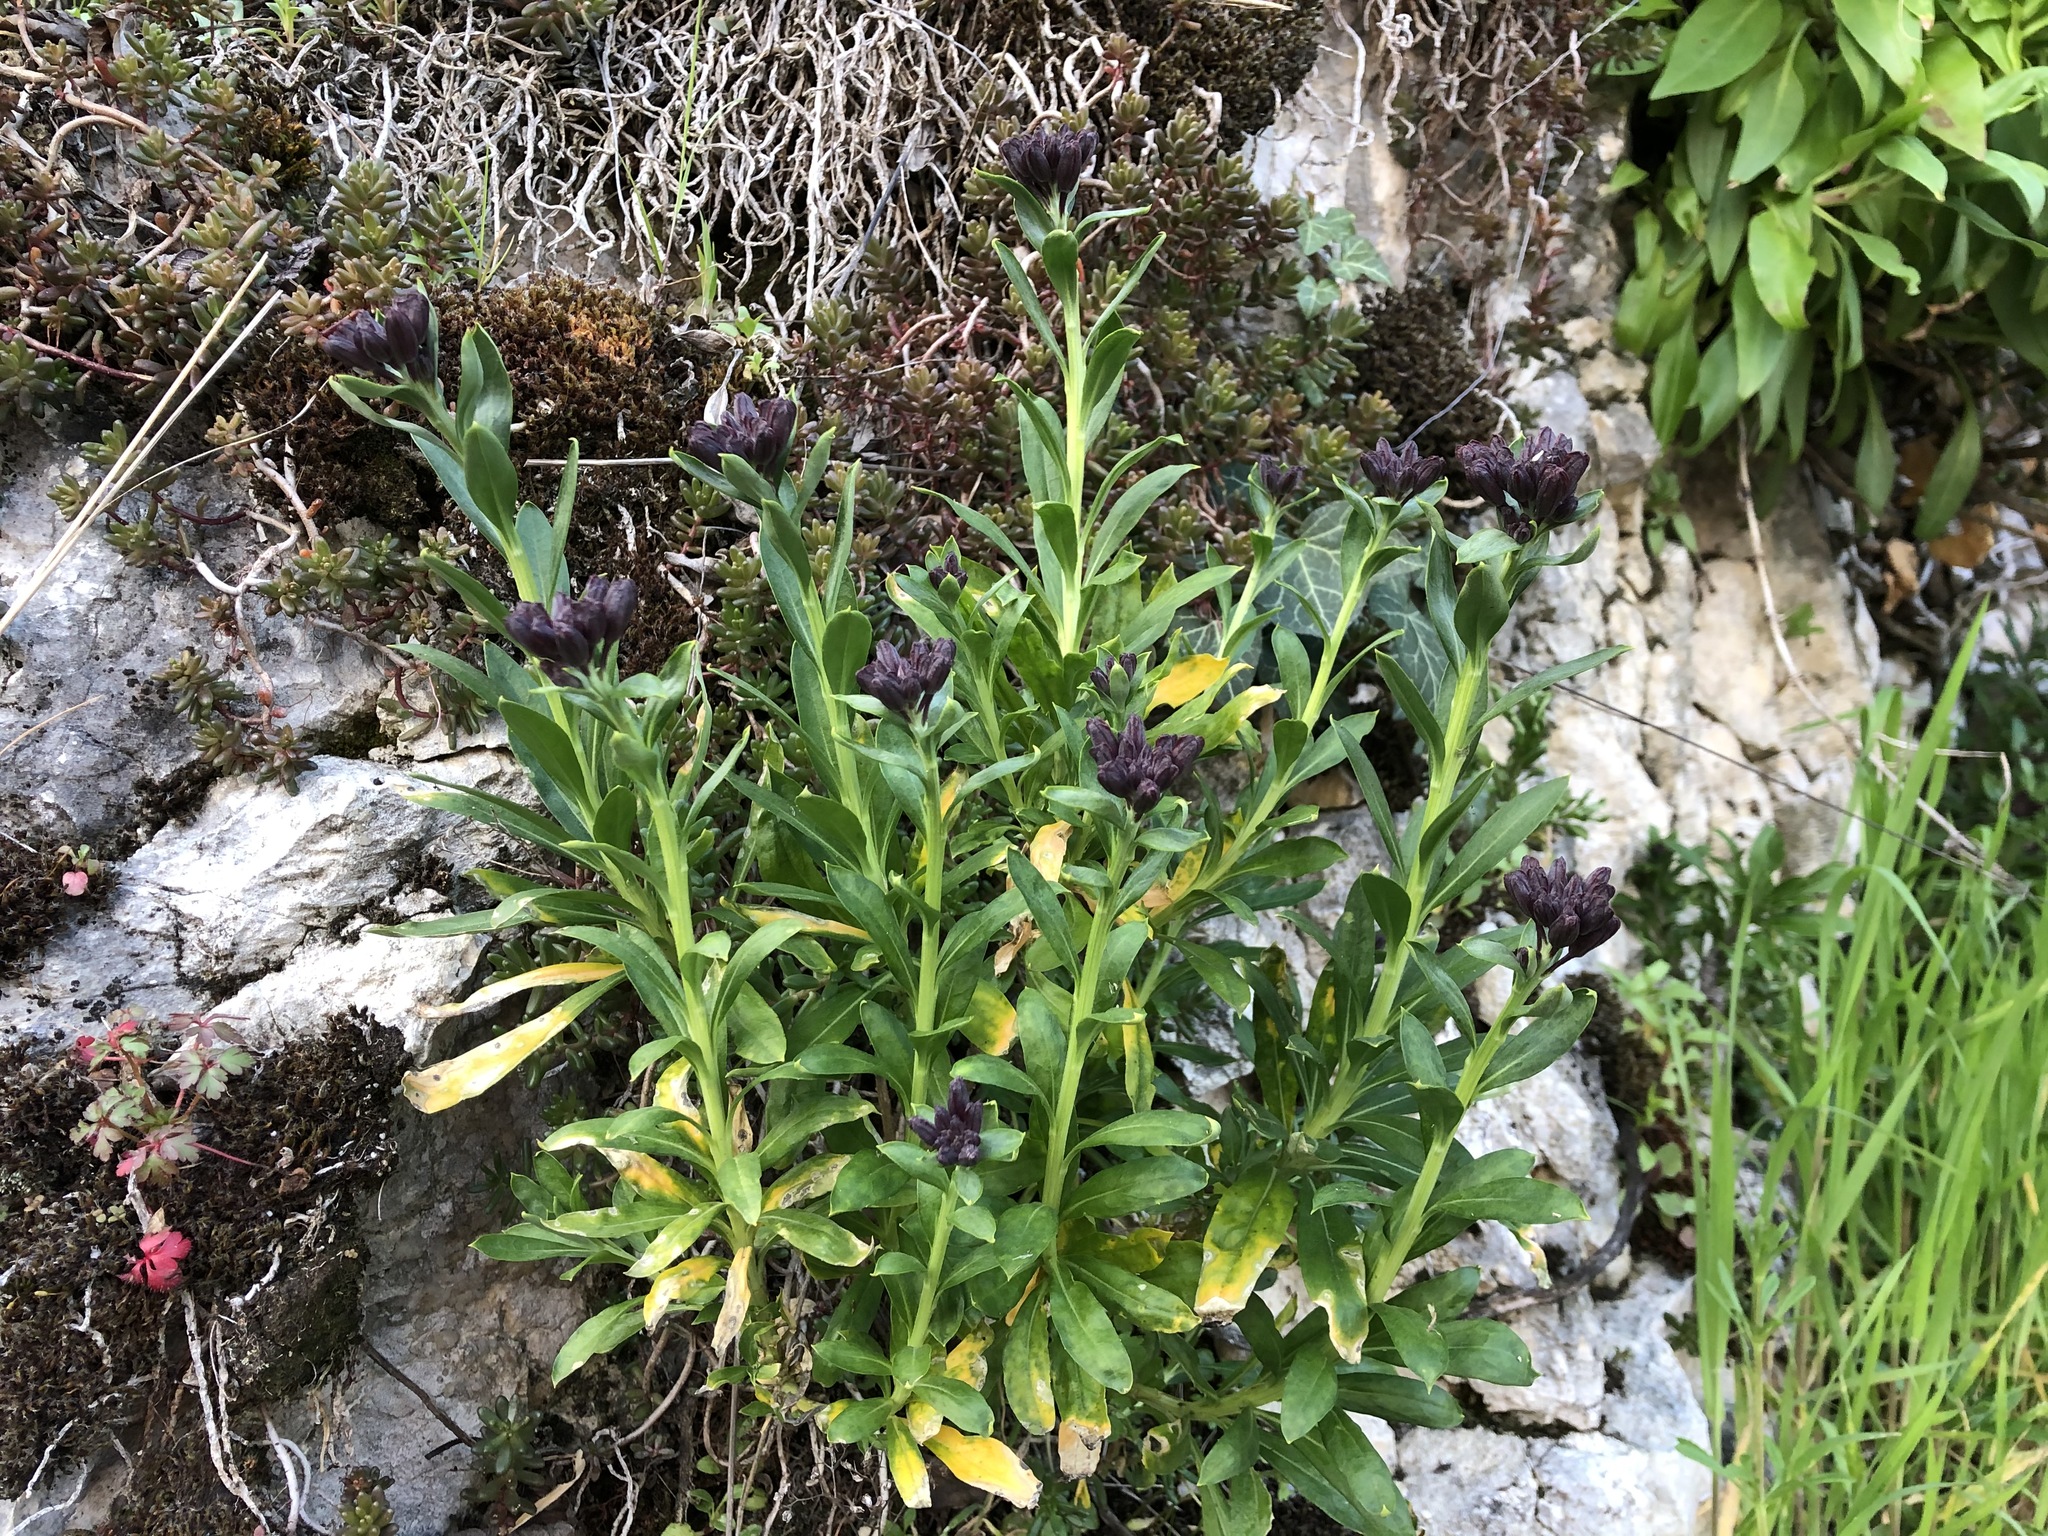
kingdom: Plantae
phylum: Tracheophyta
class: Magnoliopsida
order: Brassicales
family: Brassicaceae
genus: Erysimum
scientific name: Erysimum cheiri
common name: Wallflower
